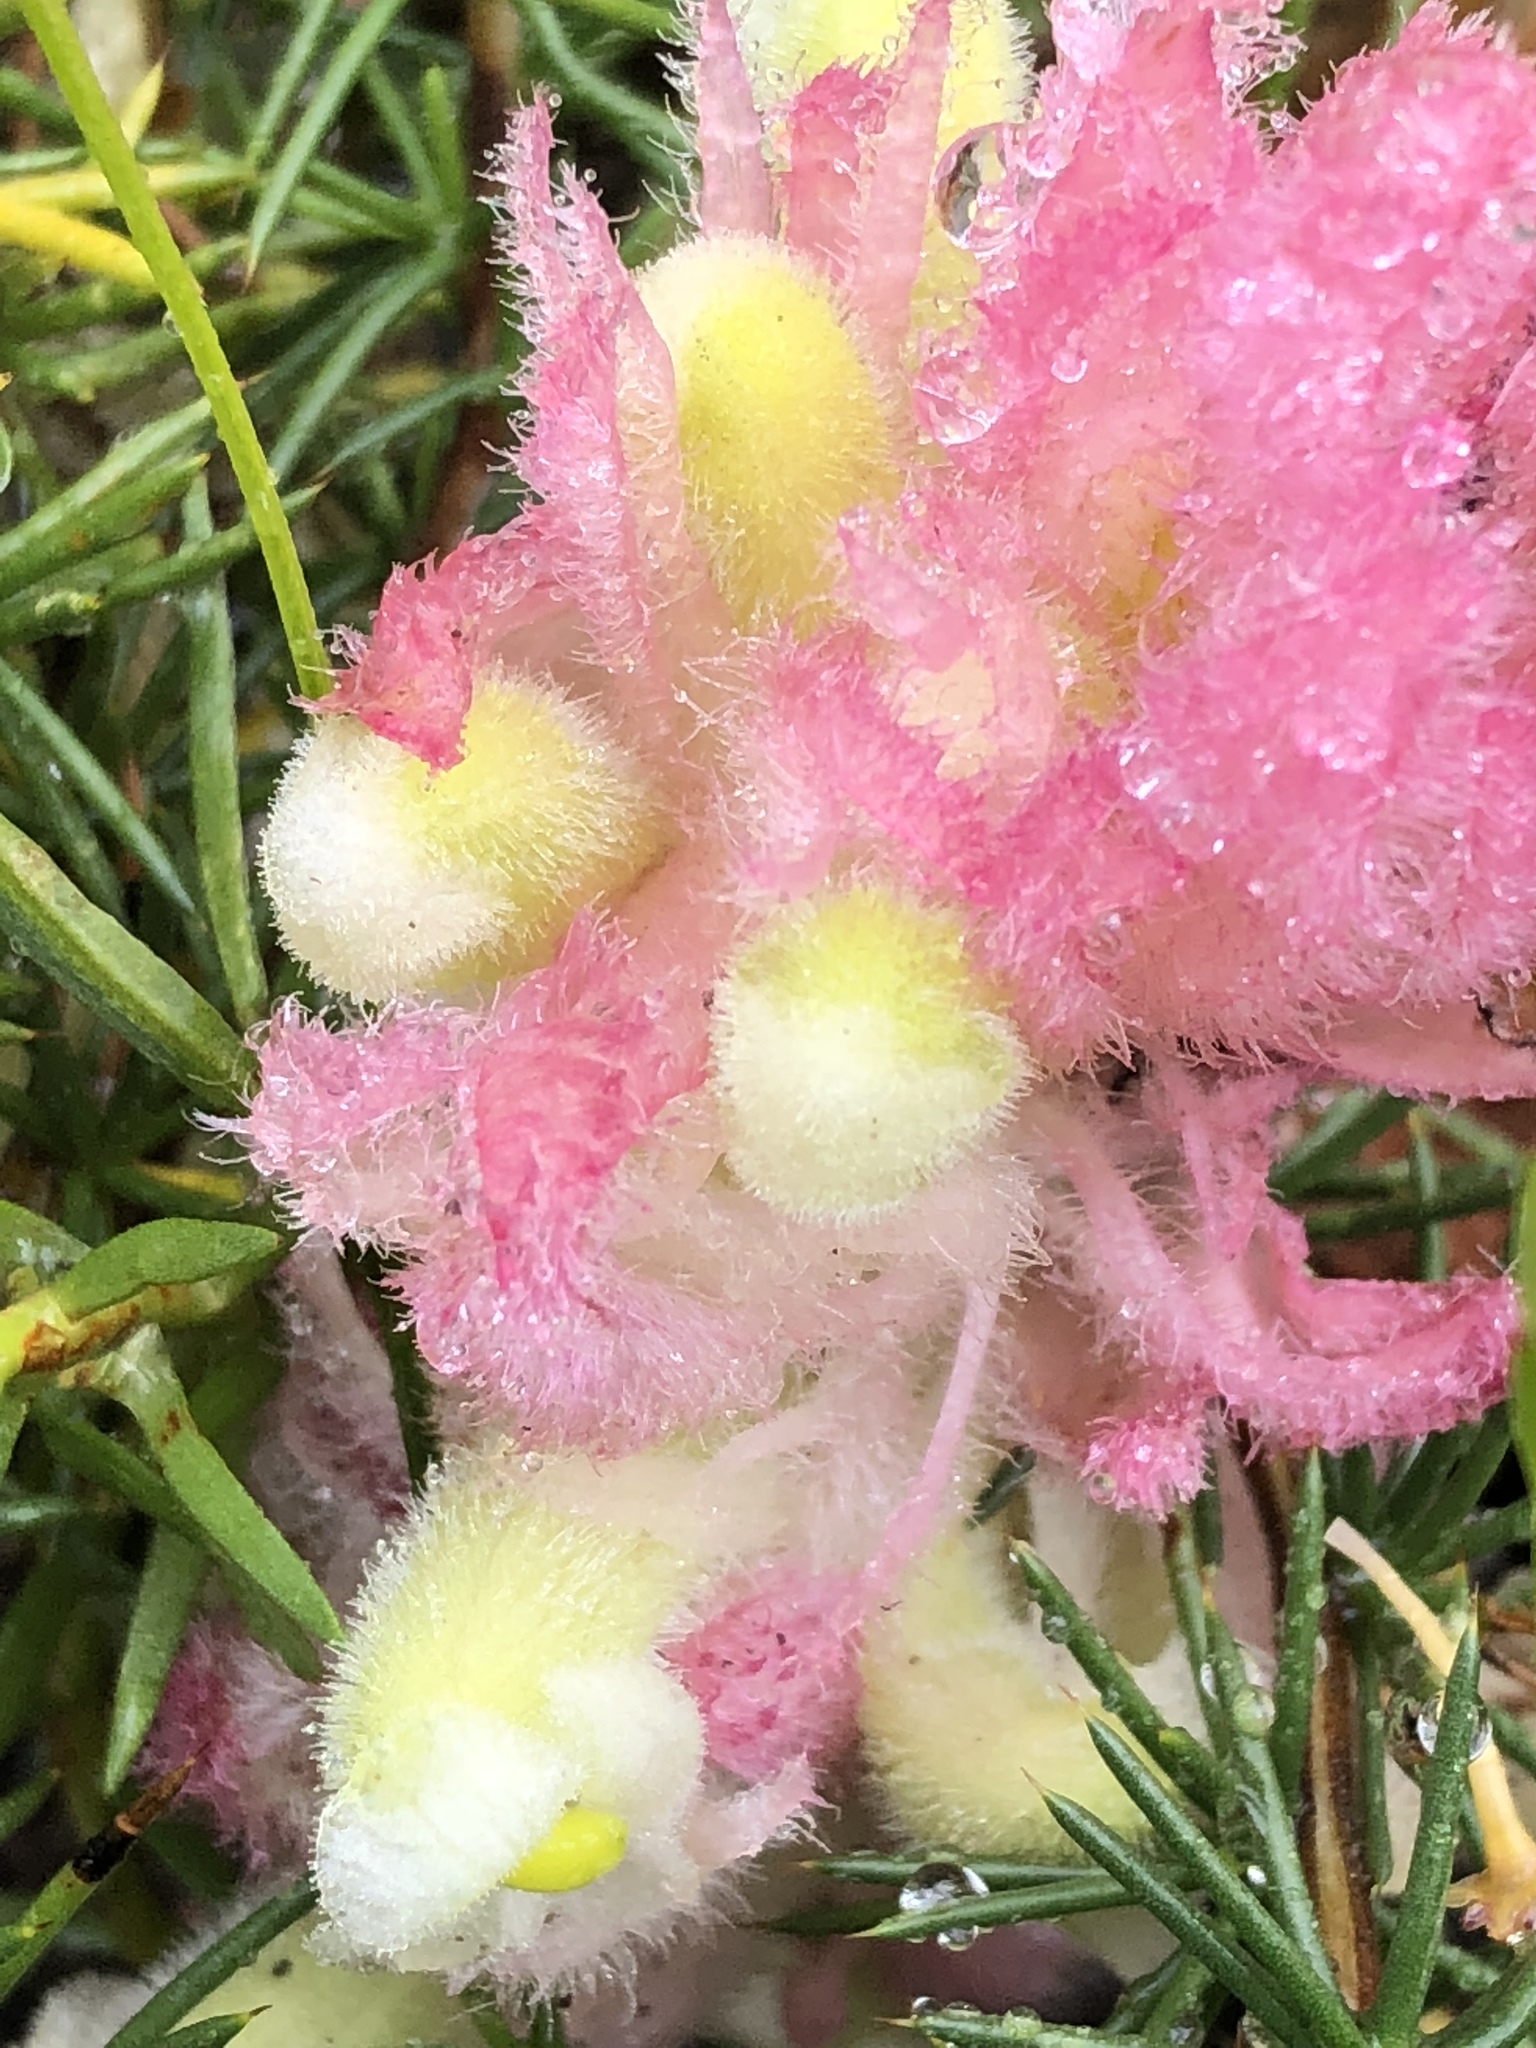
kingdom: Plantae
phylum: Tracheophyta
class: Magnoliopsida
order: Lamiales
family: Orobanchaceae
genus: Harveya
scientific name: Harveya roseoalba
